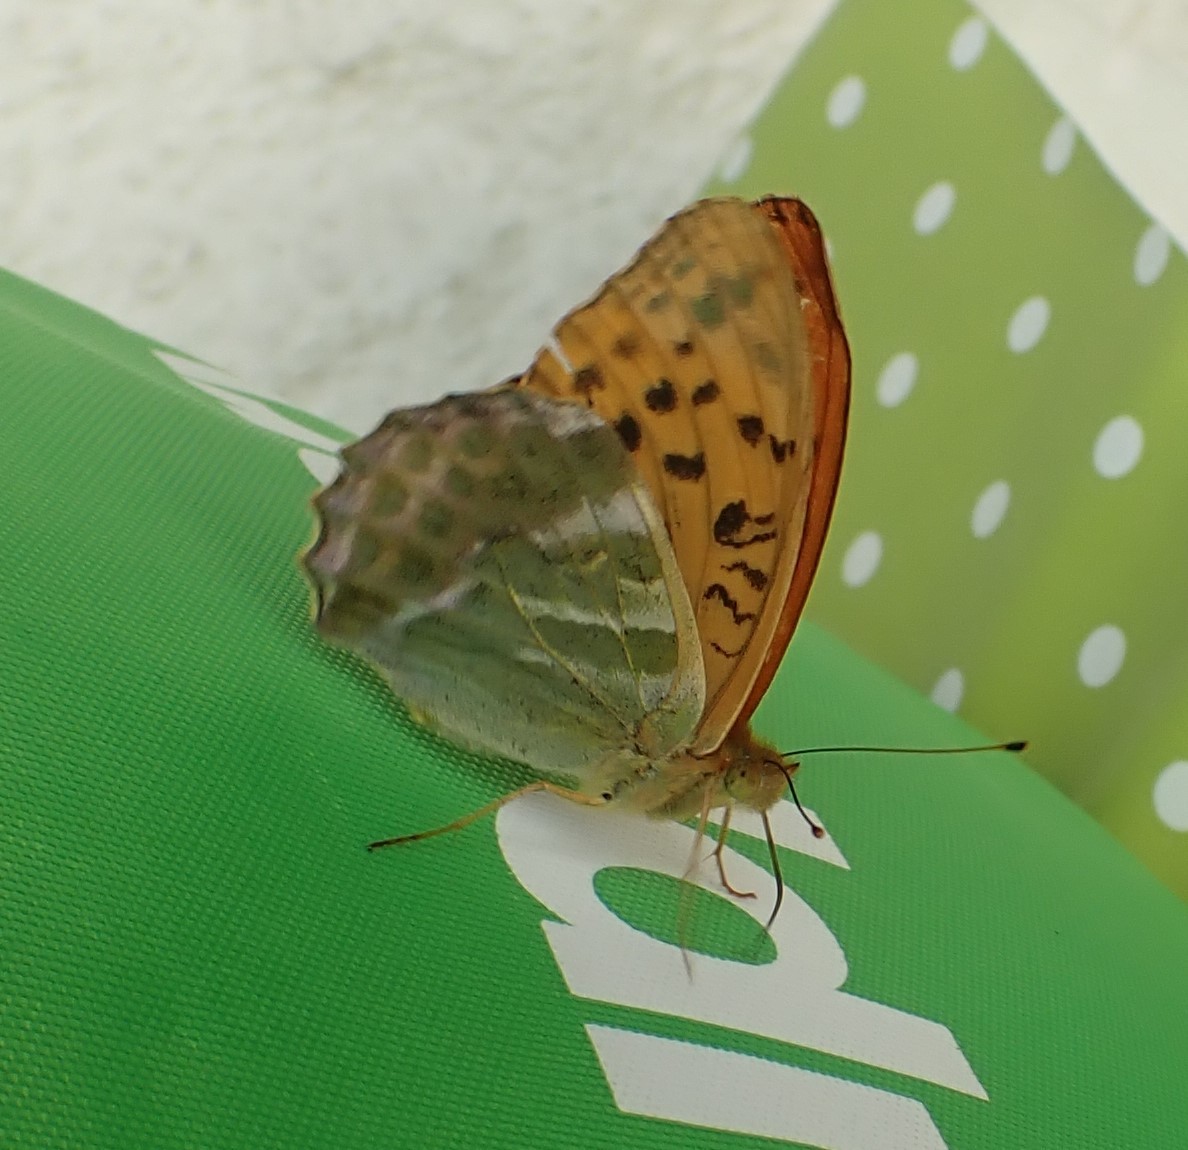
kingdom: Animalia
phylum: Arthropoda
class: Insecta
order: Lepidoptera
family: Nymphalidae
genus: Argynnis
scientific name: Argynnis paphia
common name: Silver-washed fritillary
